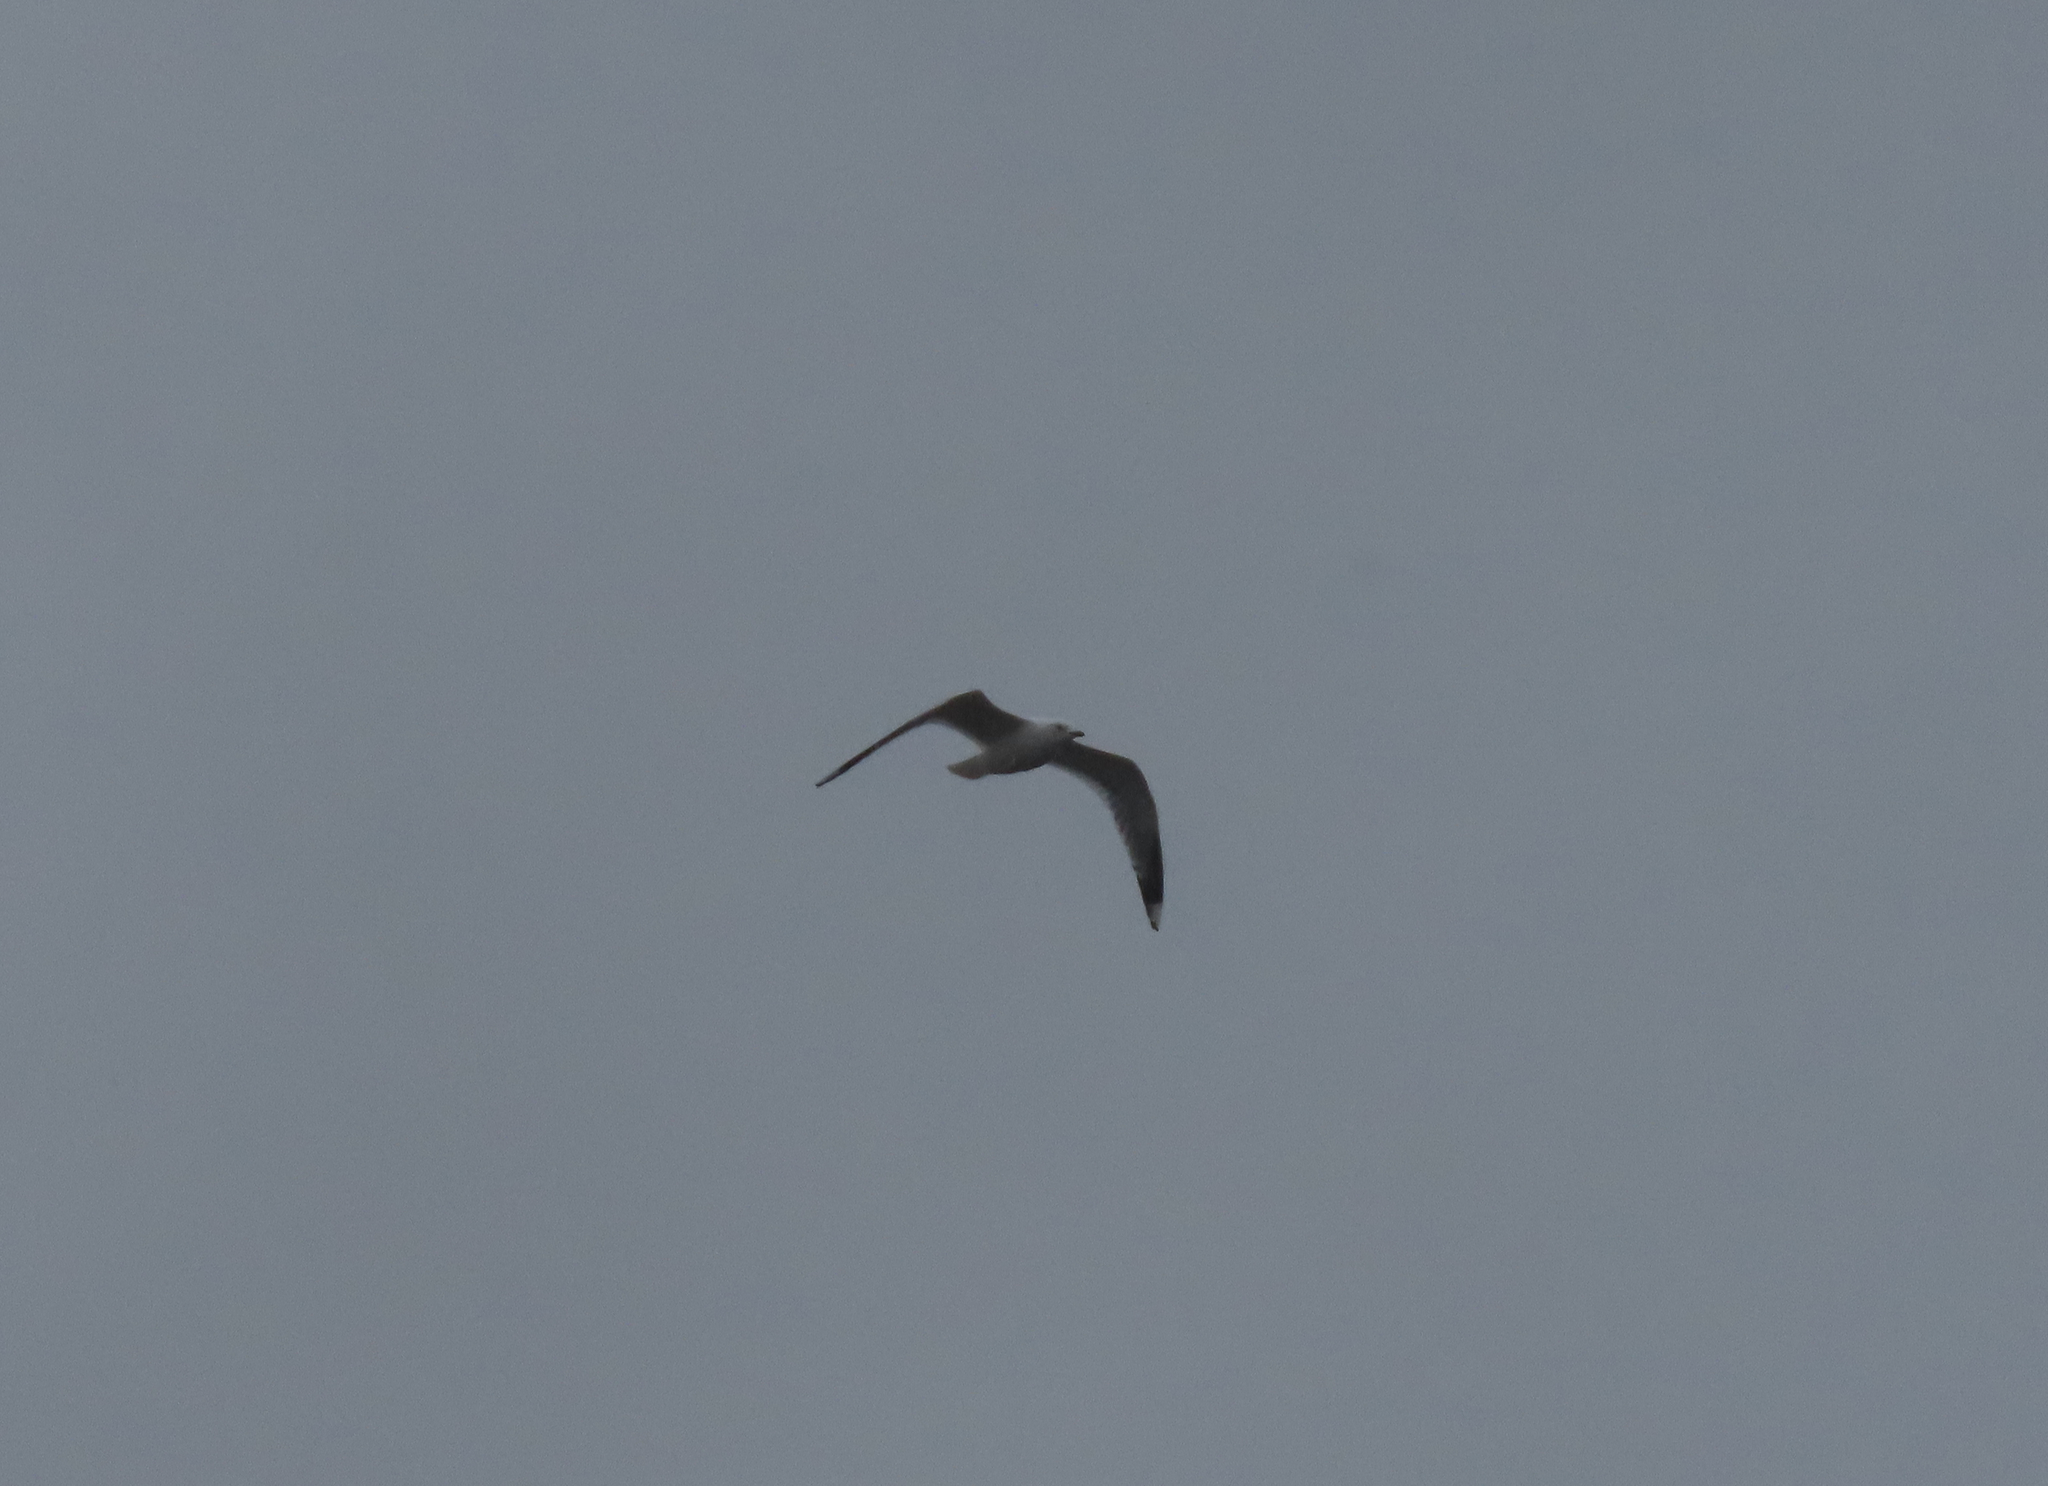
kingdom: Animalia
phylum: Chordata
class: Aves
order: Charadriiformes
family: Laridae
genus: Larus
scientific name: Larus canus
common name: Mew gull
